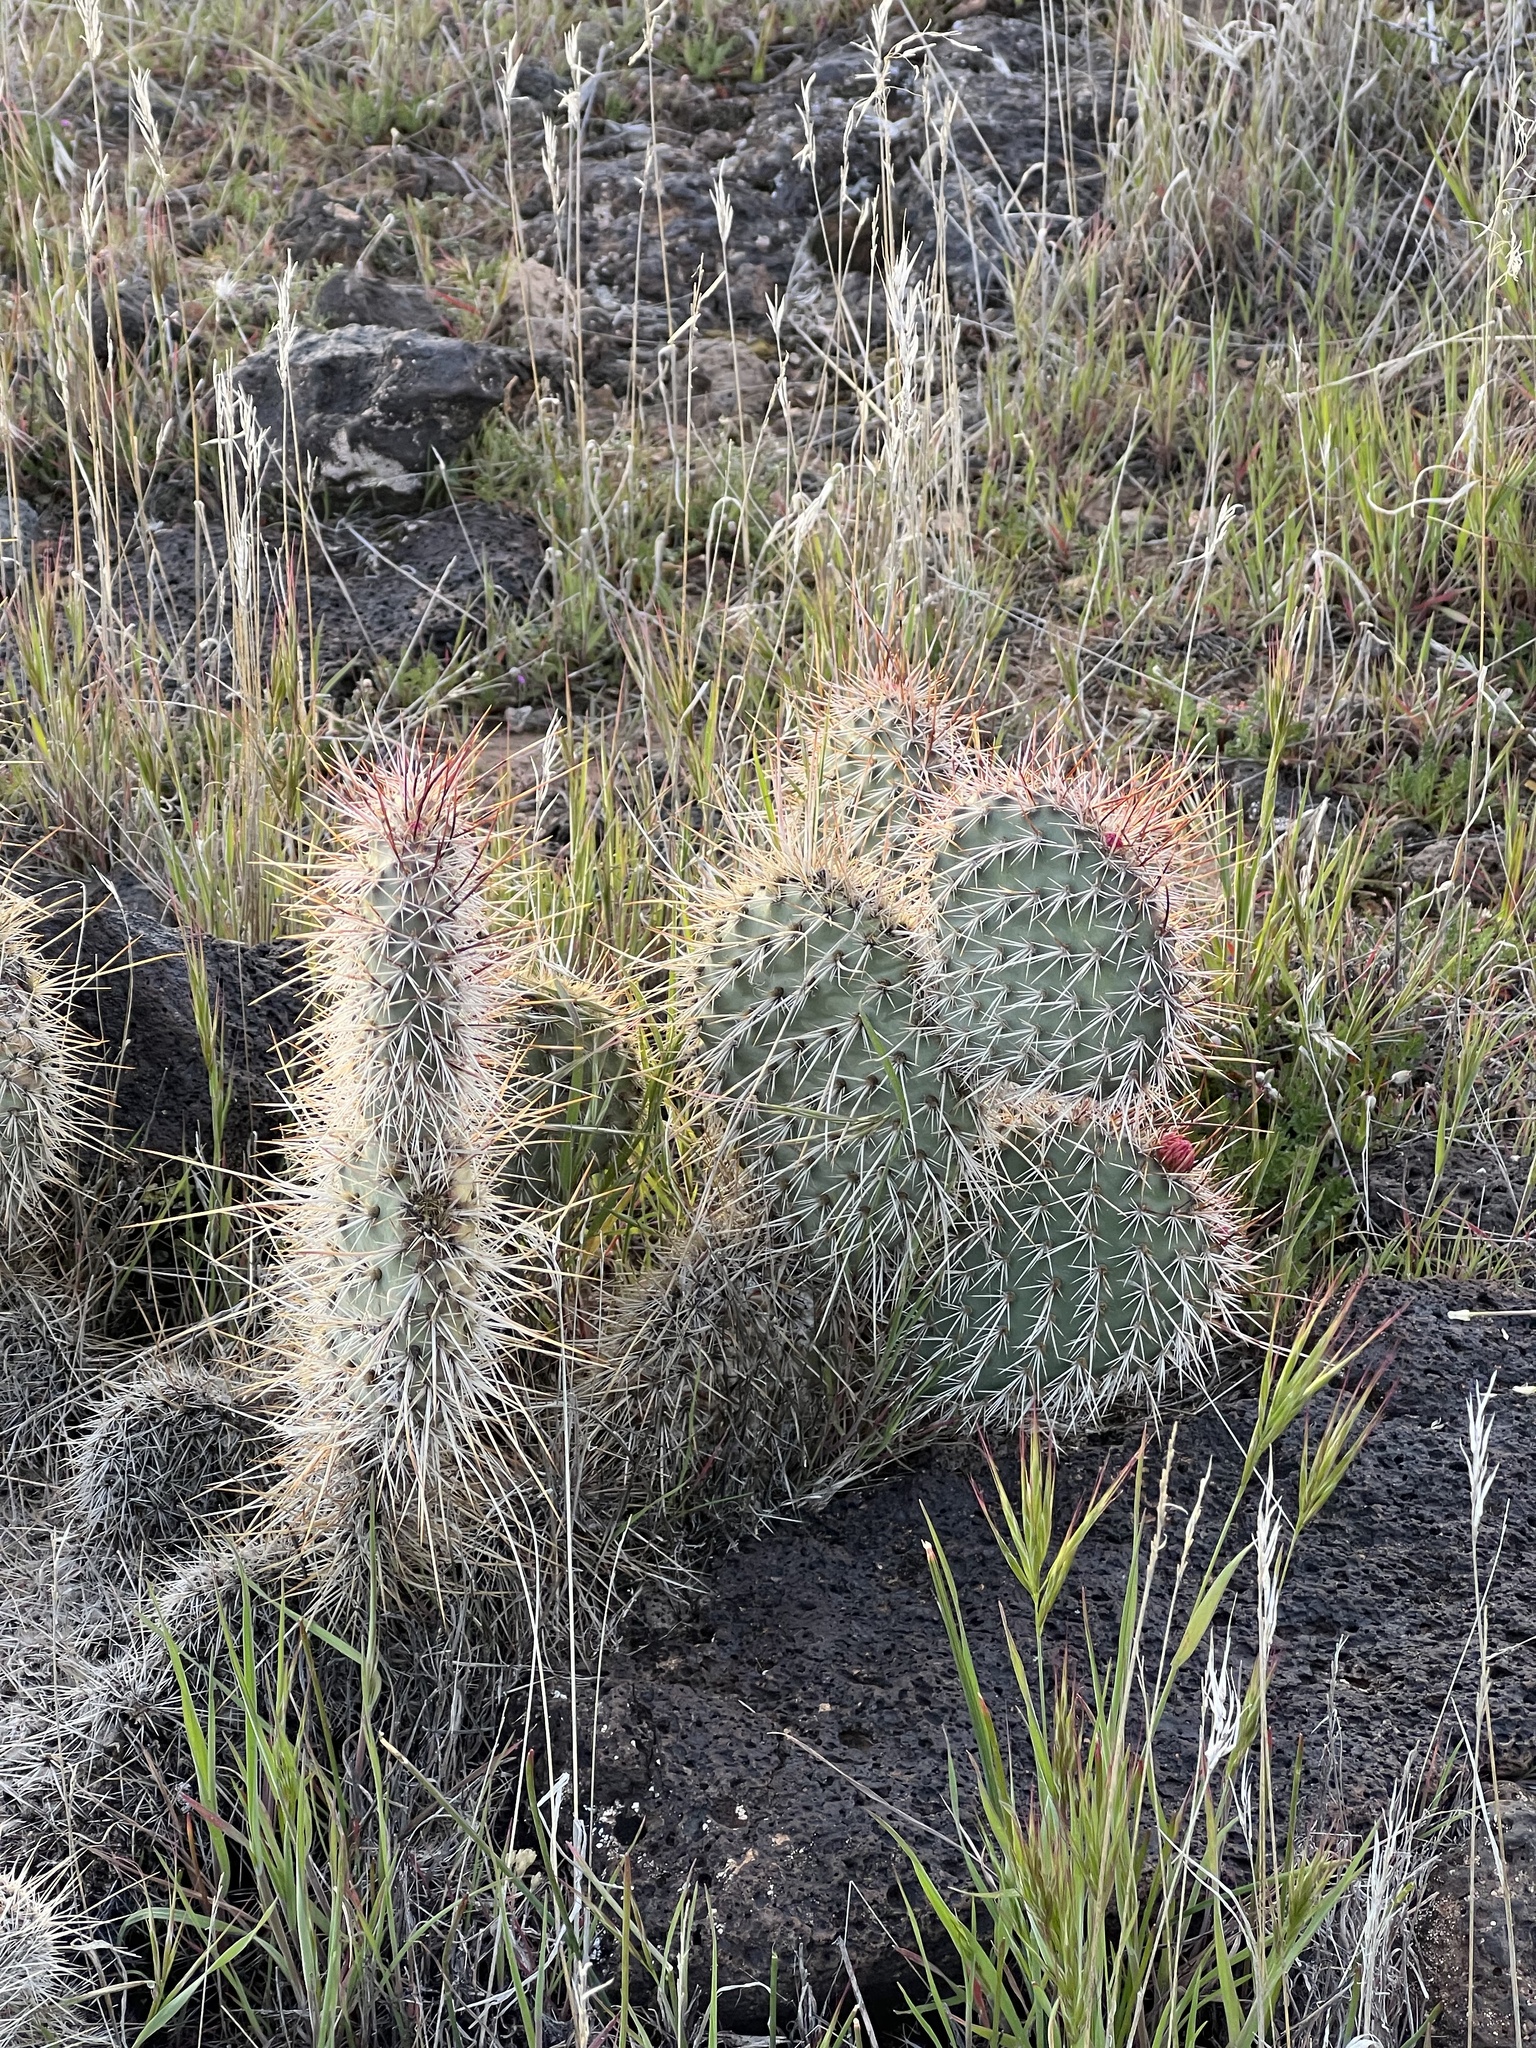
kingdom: Plantae
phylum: Tracheophyta
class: Magnoliopsida
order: Caryophyllales
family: Cactaceae
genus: Opuntia
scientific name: Opuntia polyacantha
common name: Plains prickly-pear
